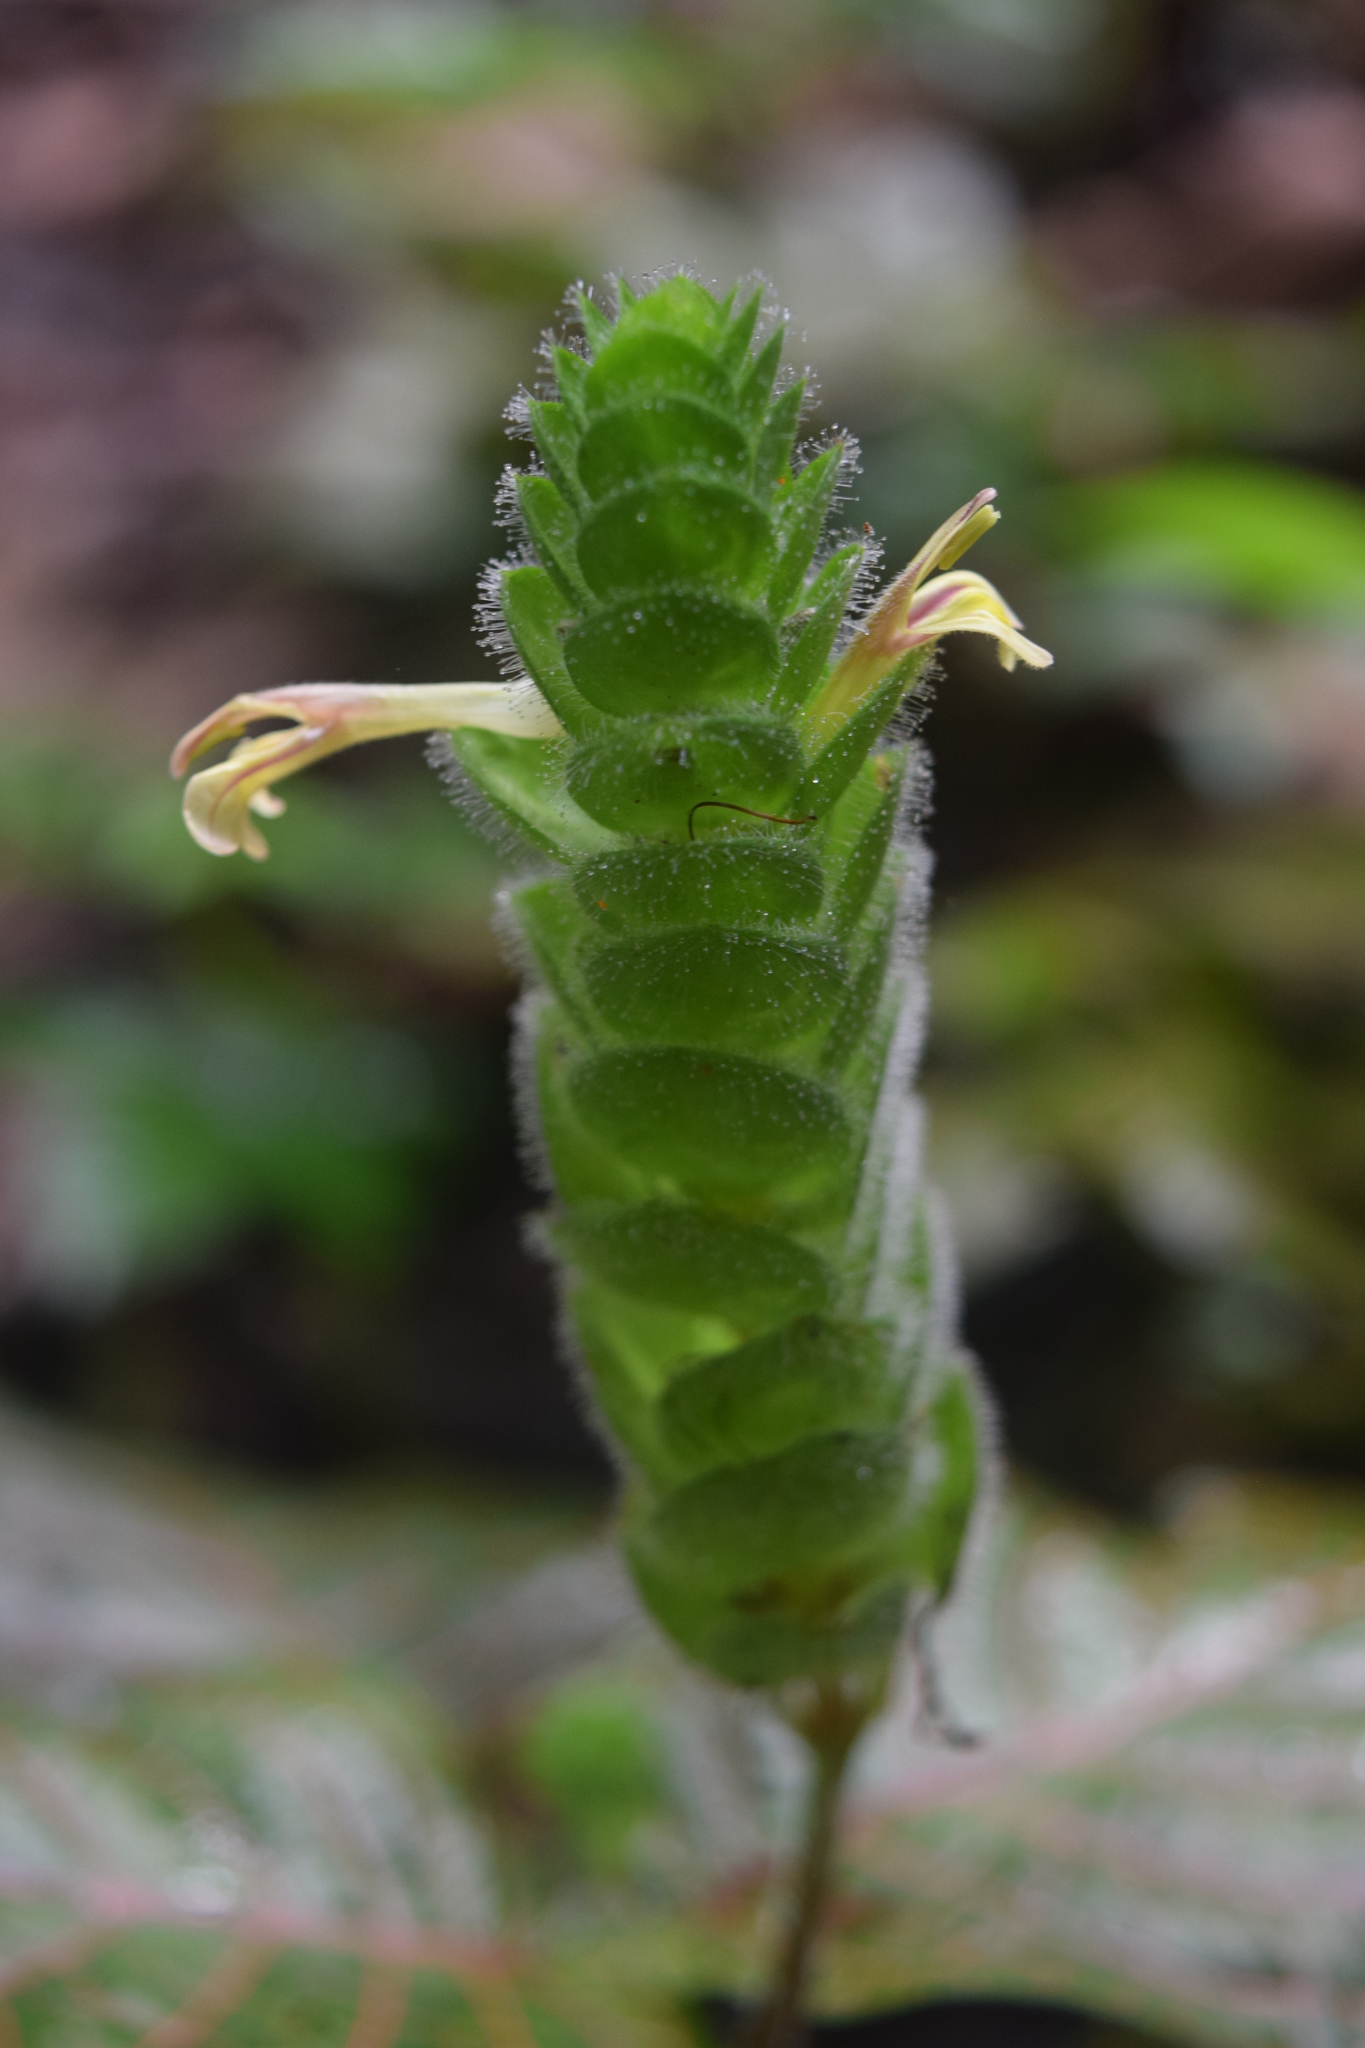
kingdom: Plantae
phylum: Tracheophyta
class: Magnoliopsida
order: Lamiales
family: Acanthaceae
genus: Fittonia
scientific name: Fittonia albivenis
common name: Mosaic-plant
